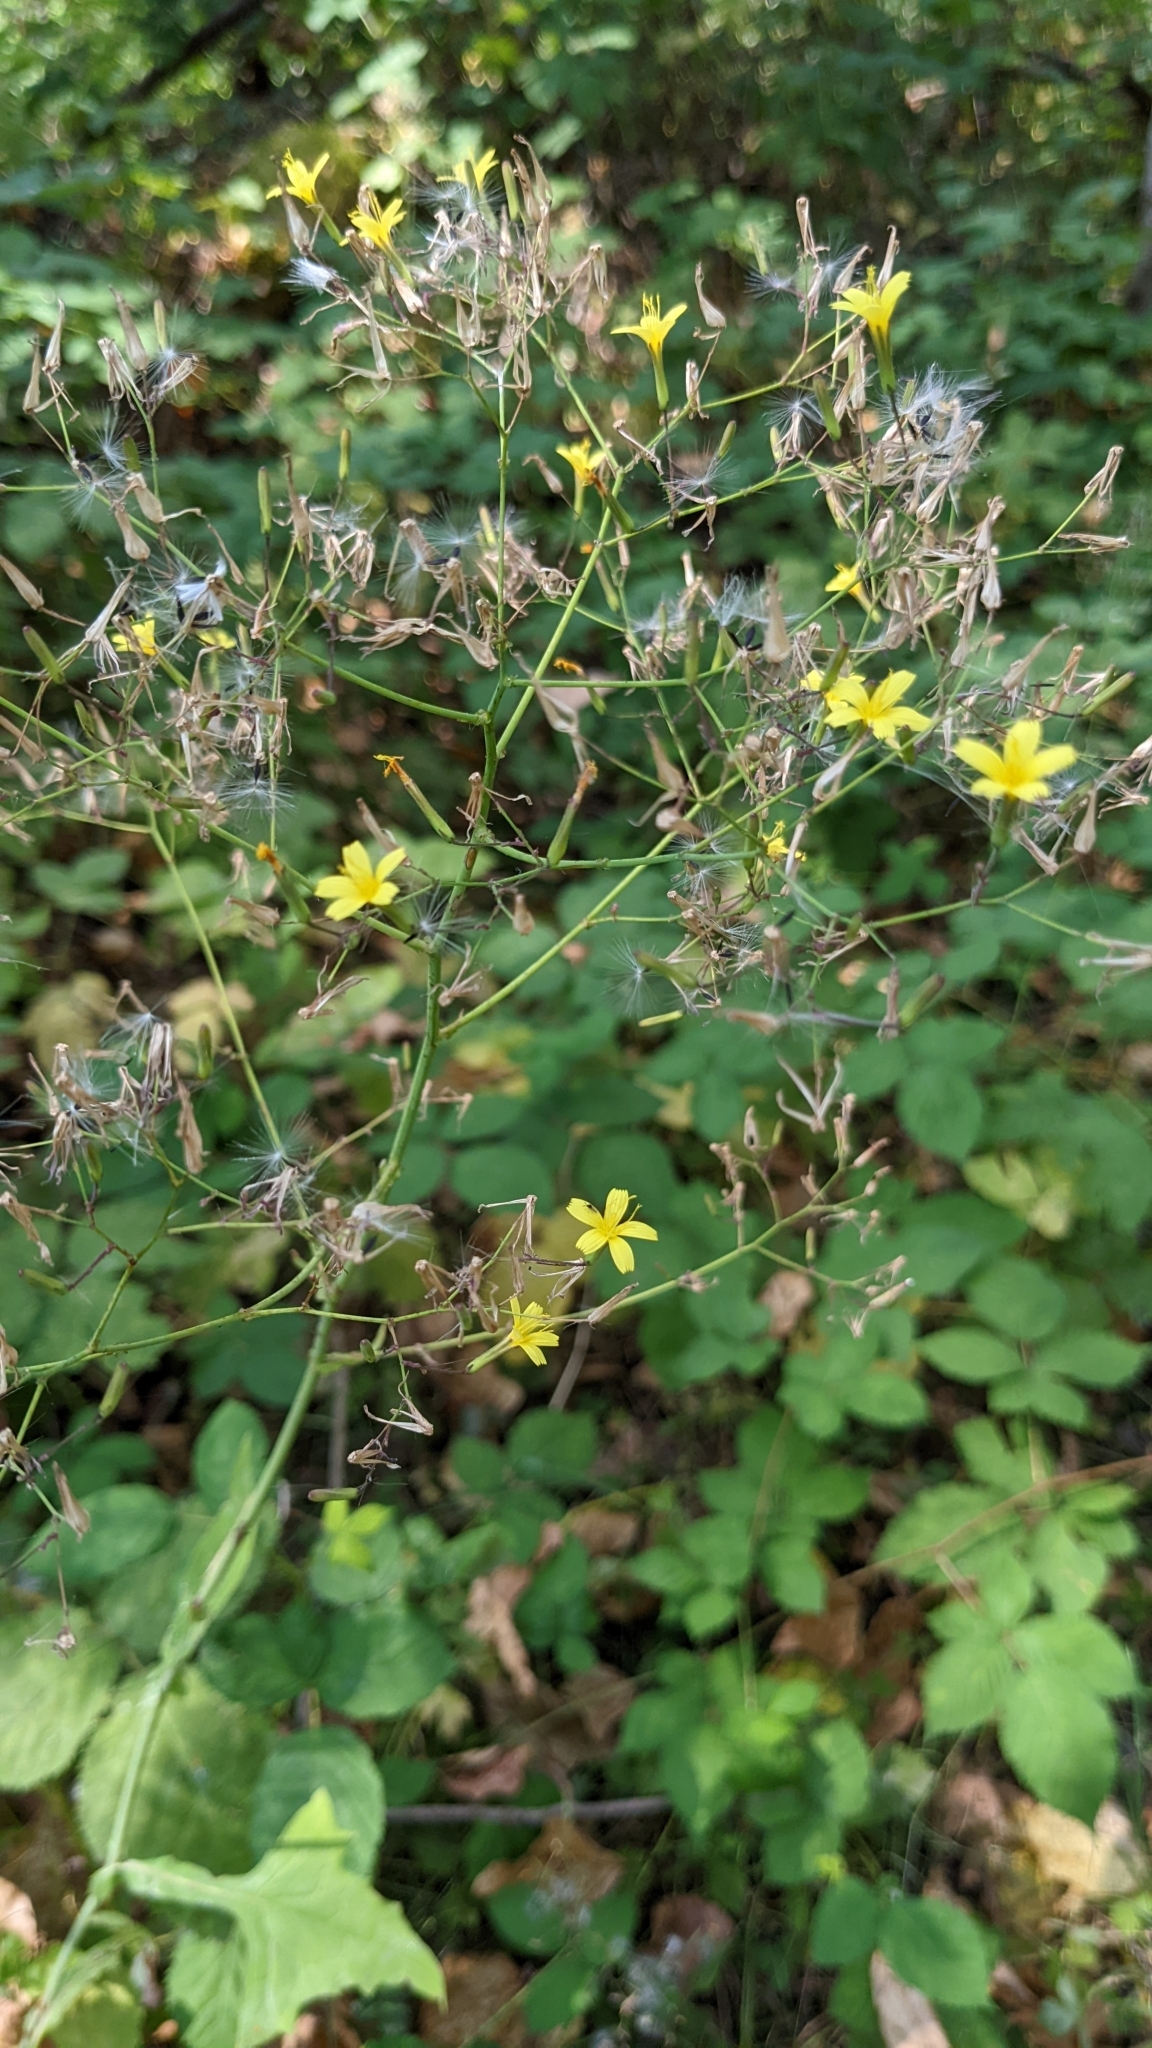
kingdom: Plantae
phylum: Tracheophyta
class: Magnoliopsida
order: Asterales
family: Asteraceae
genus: Mycelis
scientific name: Mycelis muralis
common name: Wall lettuce
